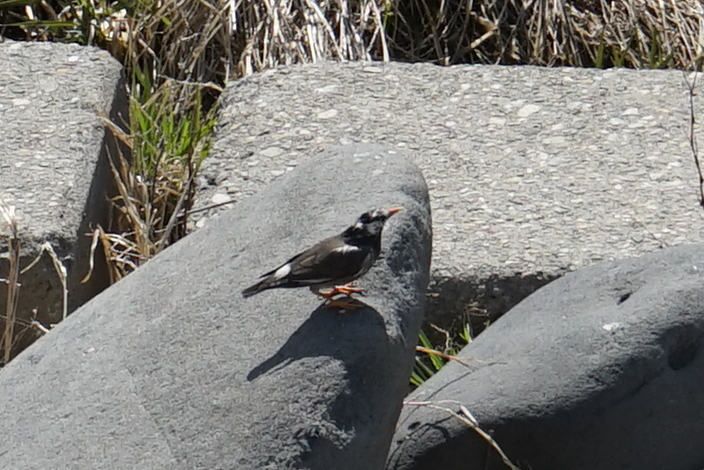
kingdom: Animalia
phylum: Chordata
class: Aves
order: Passeriformes
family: Sturnidae
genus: Spodiopsar
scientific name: Spodiopsar cineraceus
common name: White-cheeked starling
